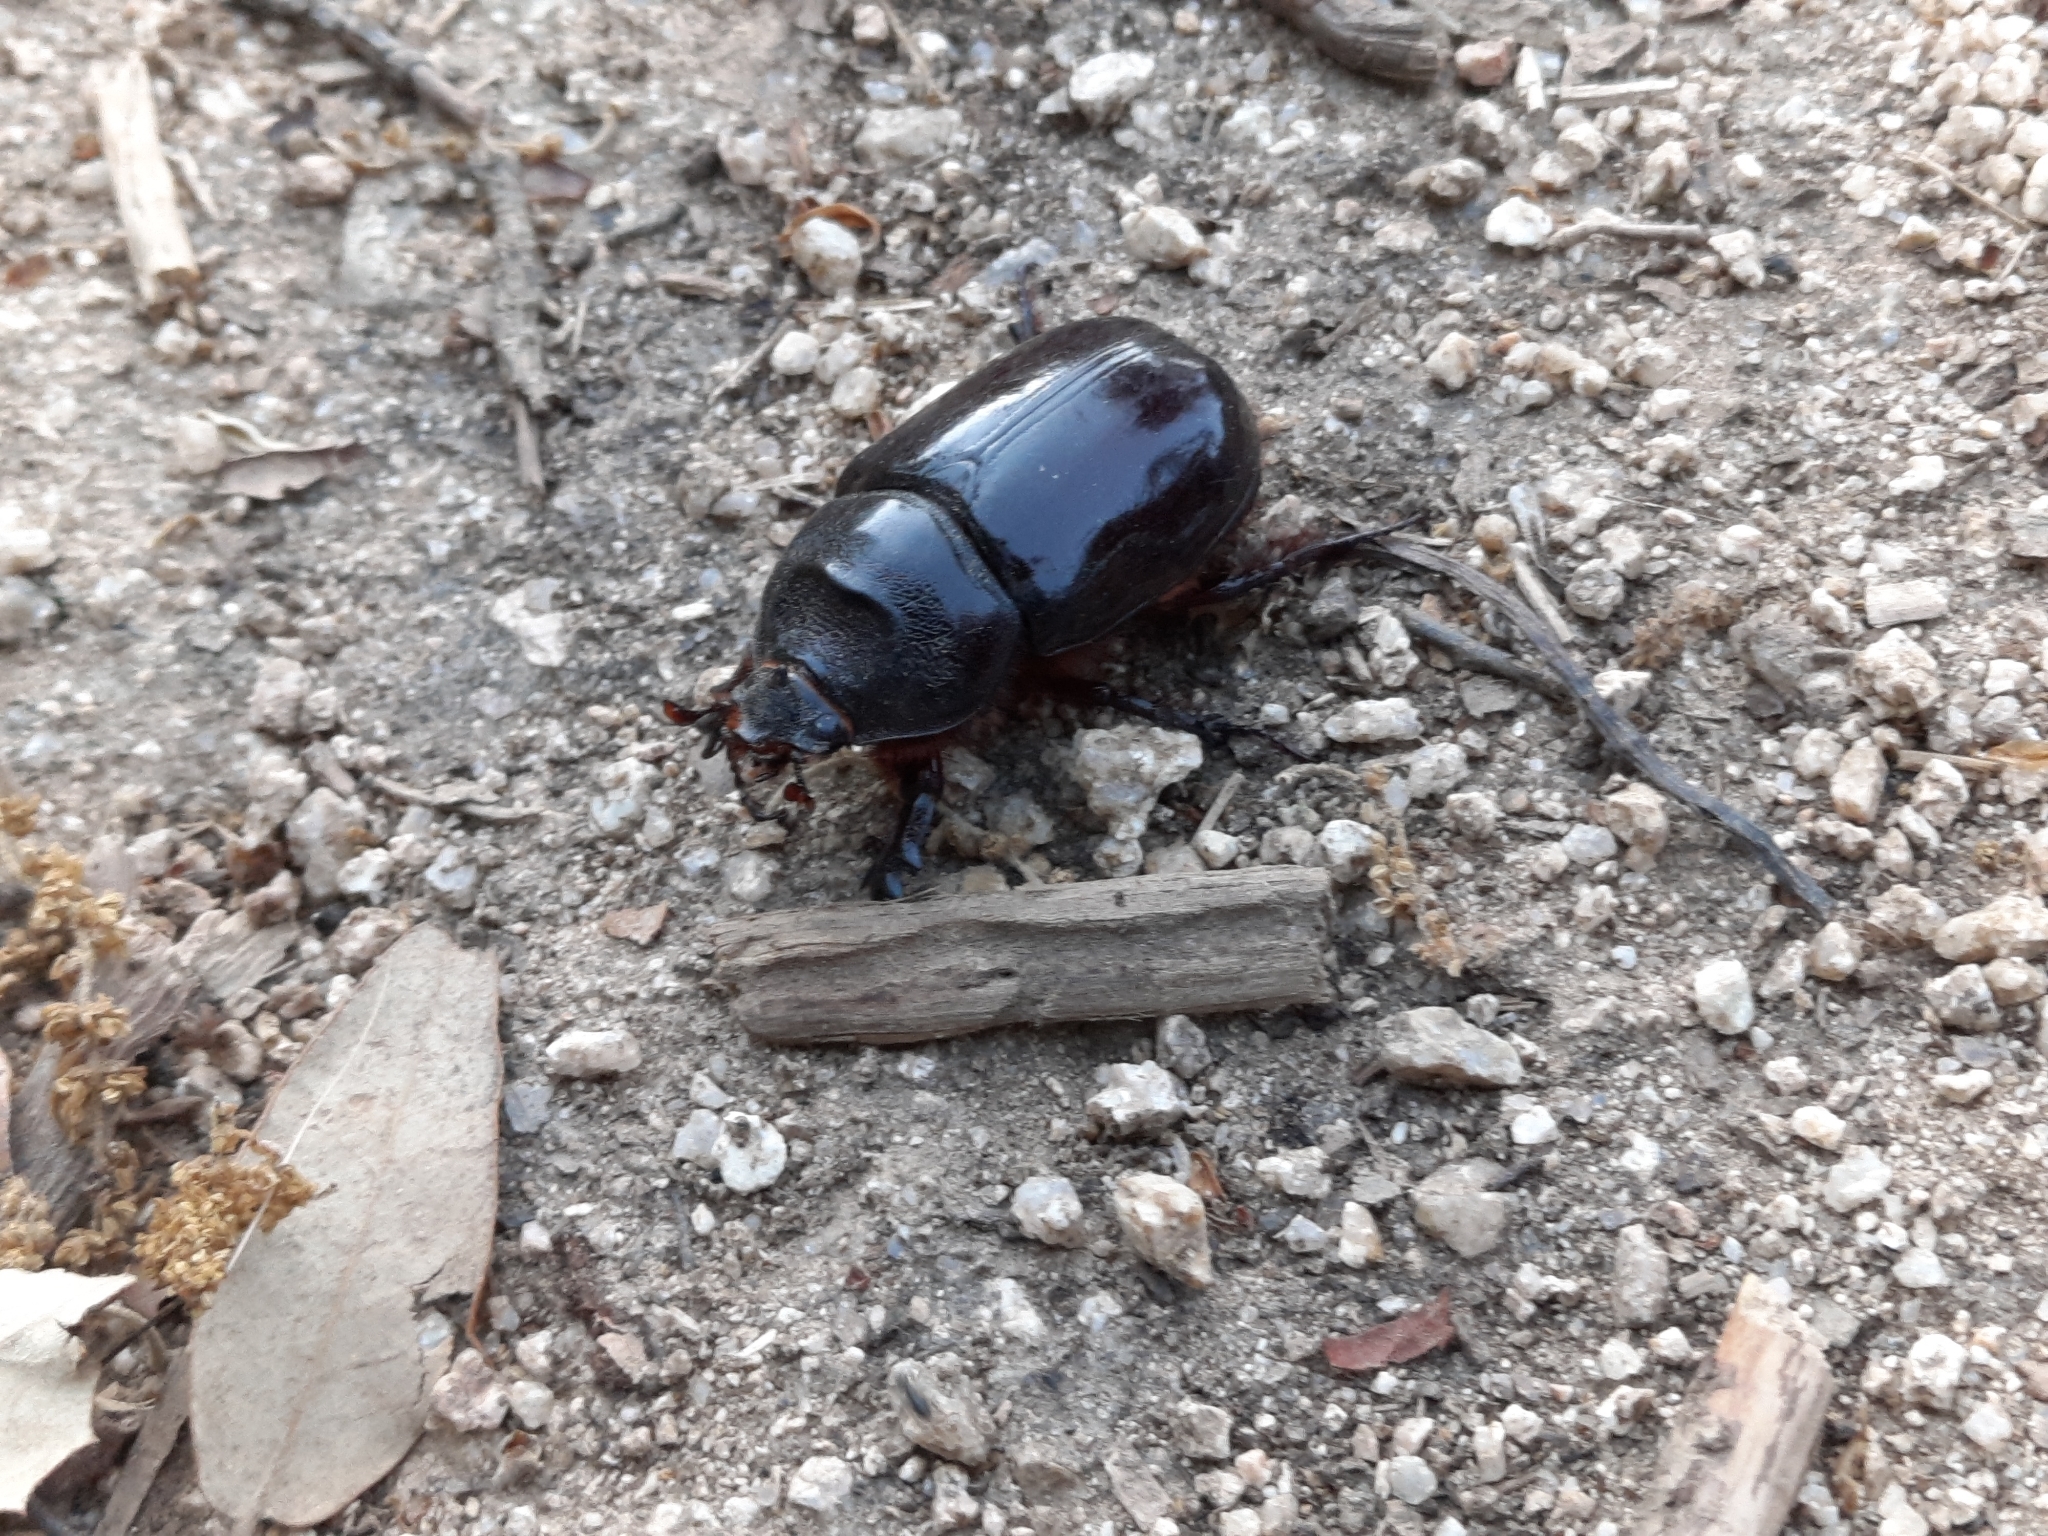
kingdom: Animalia
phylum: Arthropoda
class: Insecta
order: Coleoptera
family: Scarabaeidae
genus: Oryctes
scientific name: Oryctes nasicornis
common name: European rhinoceros beetle
